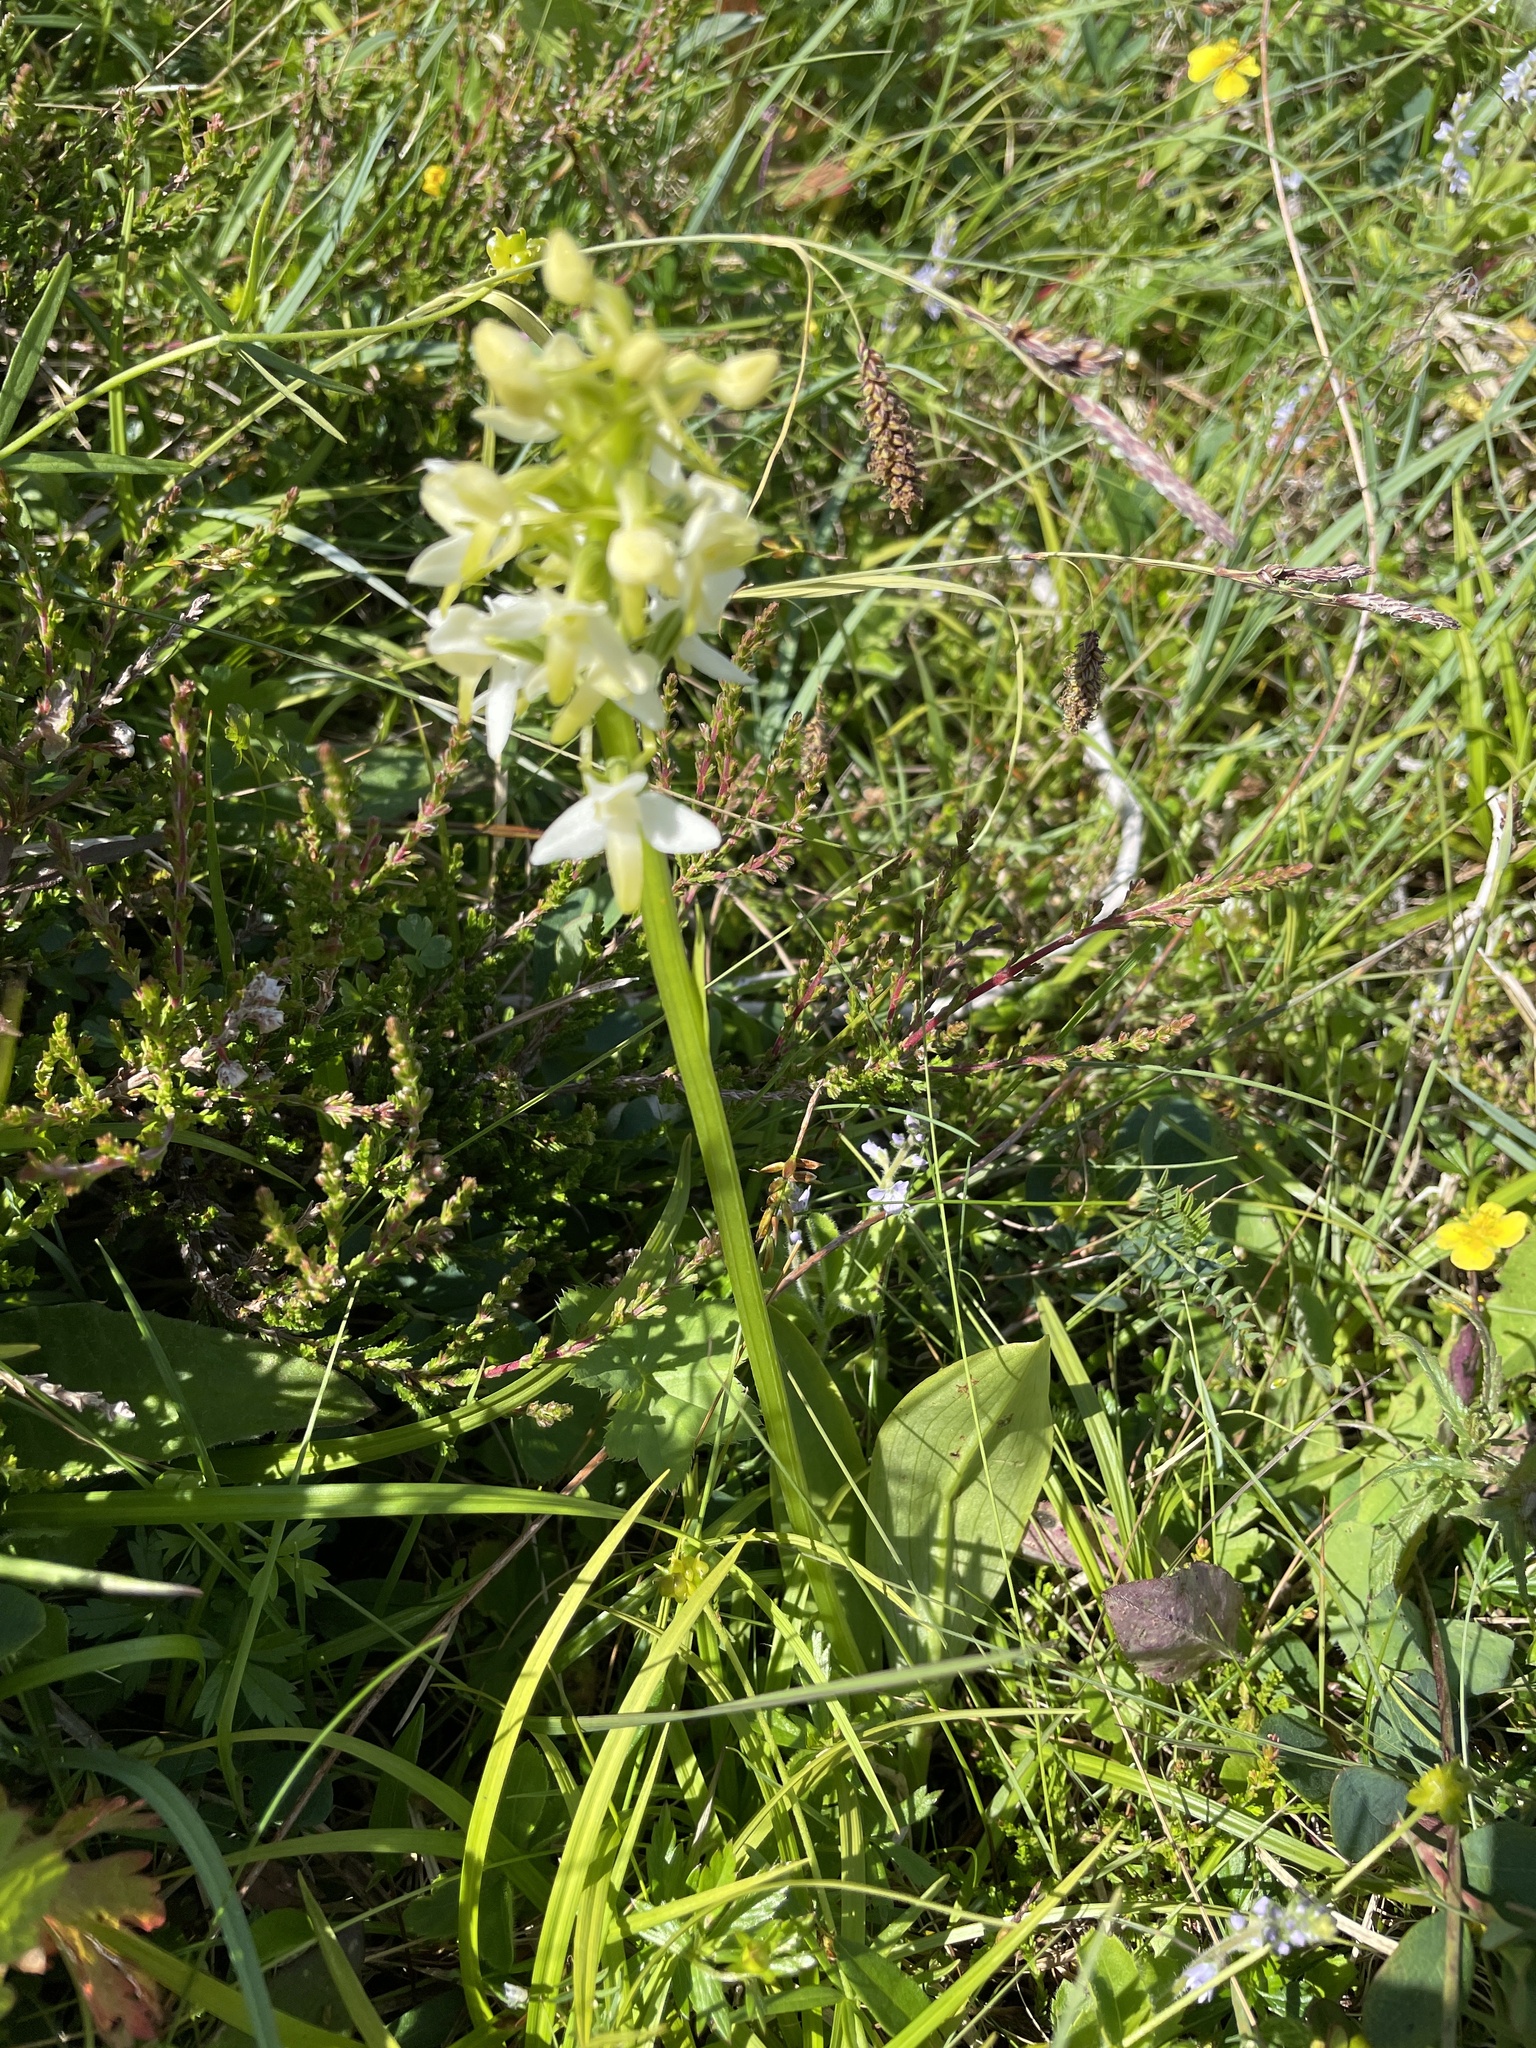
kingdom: Plantae
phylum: Tracheophyta
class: Liliopsida
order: Asparagales
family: Orchidaceae
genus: Platanthera
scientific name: Platanthera bifolia
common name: Lesser butterfly-orchid
